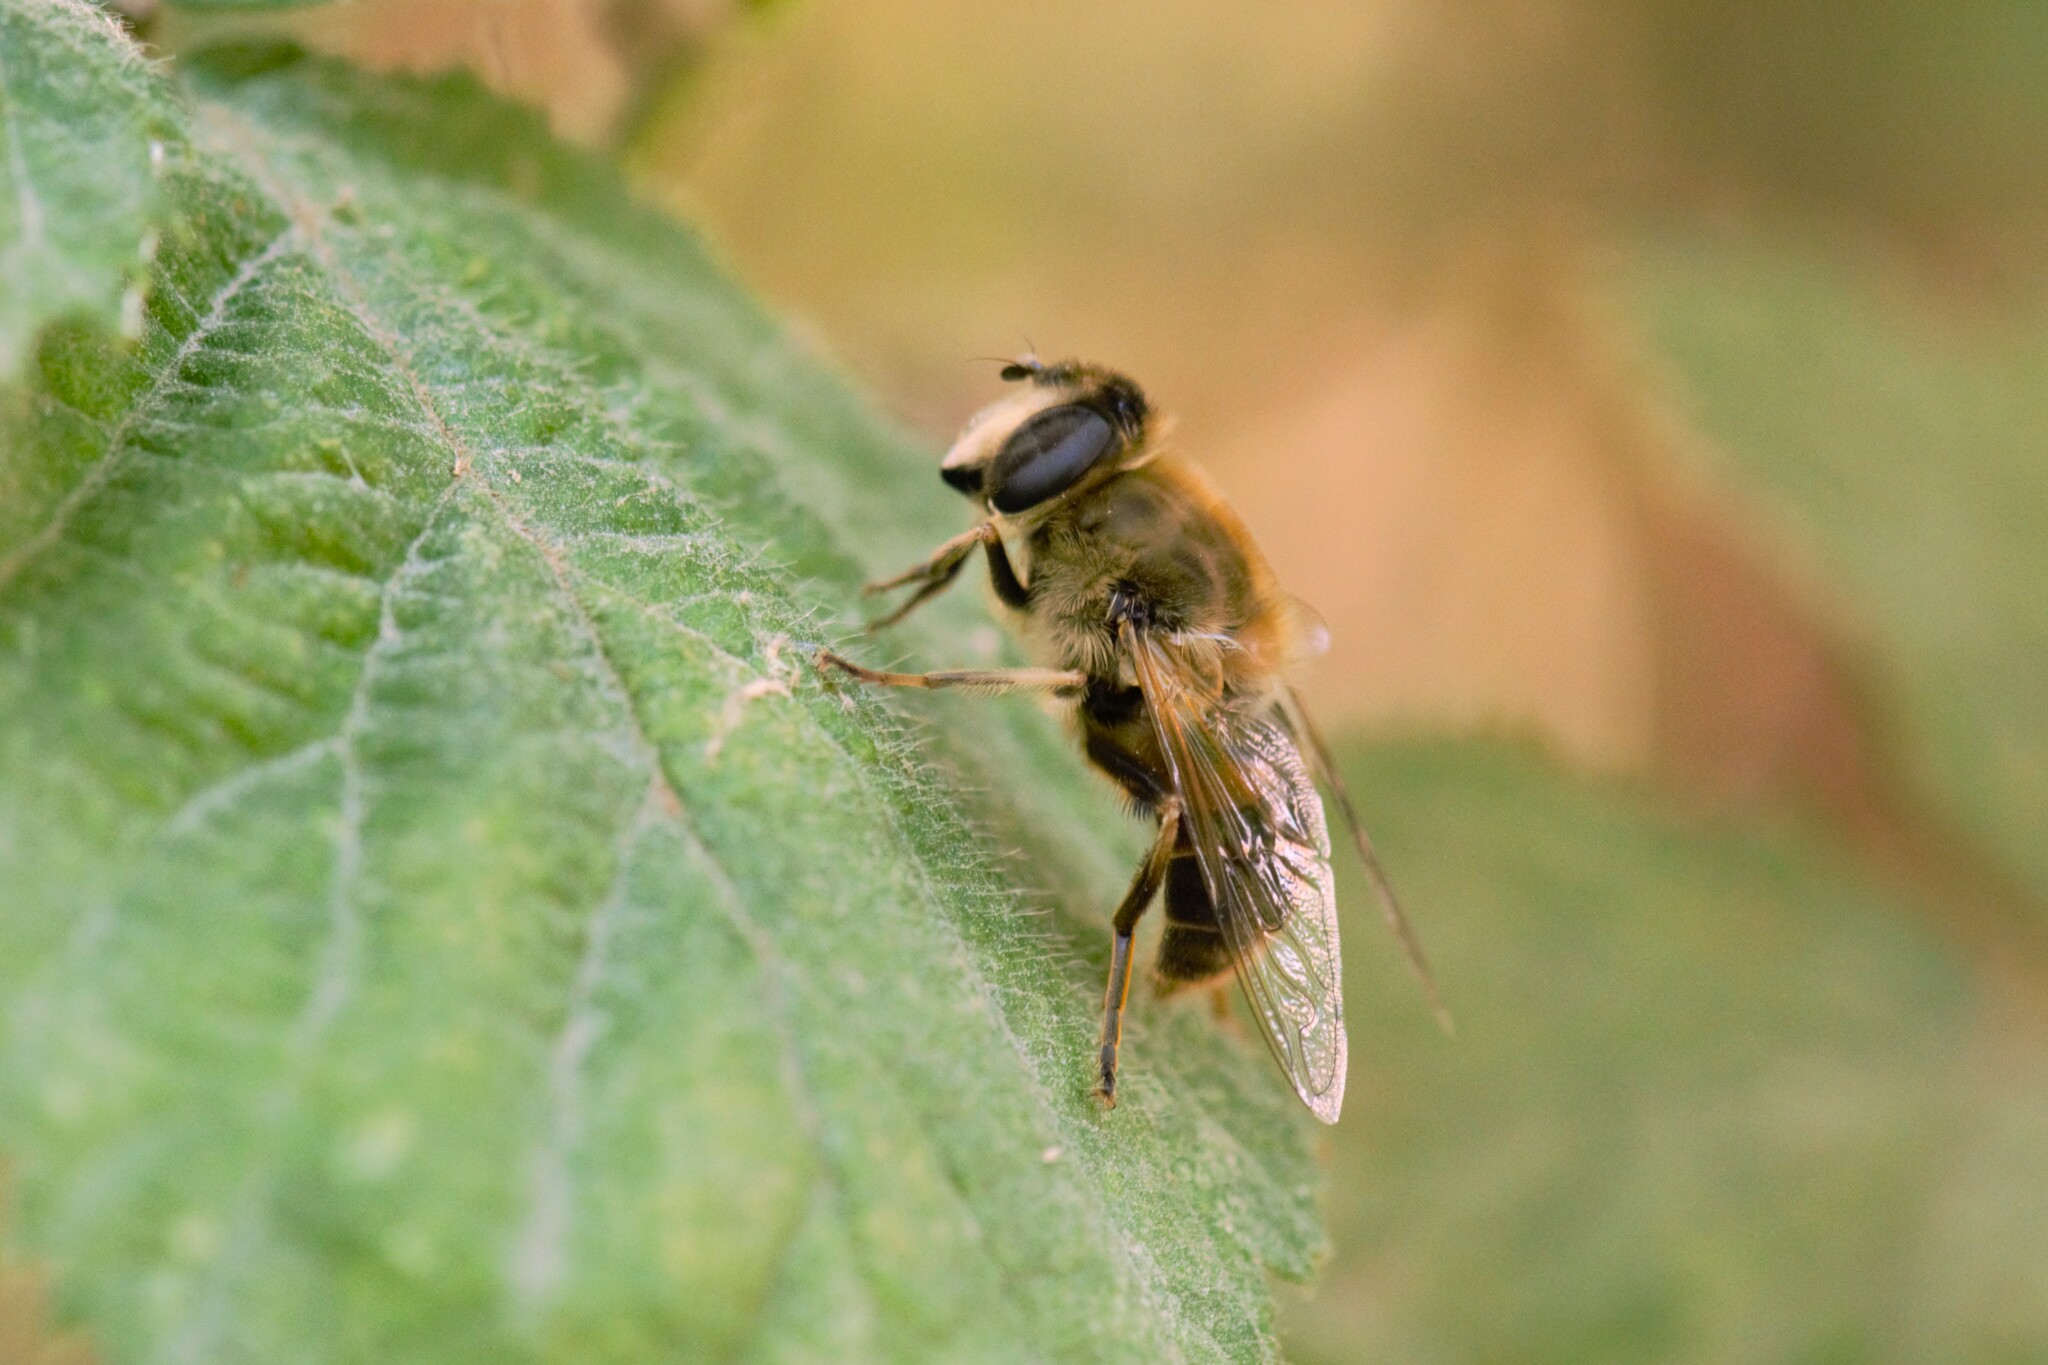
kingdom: Animalia
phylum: Arthropoda
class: Insecta
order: Diptera
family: Syrphidae
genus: Eristalis
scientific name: Eristalis tenax
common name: Drone fly
